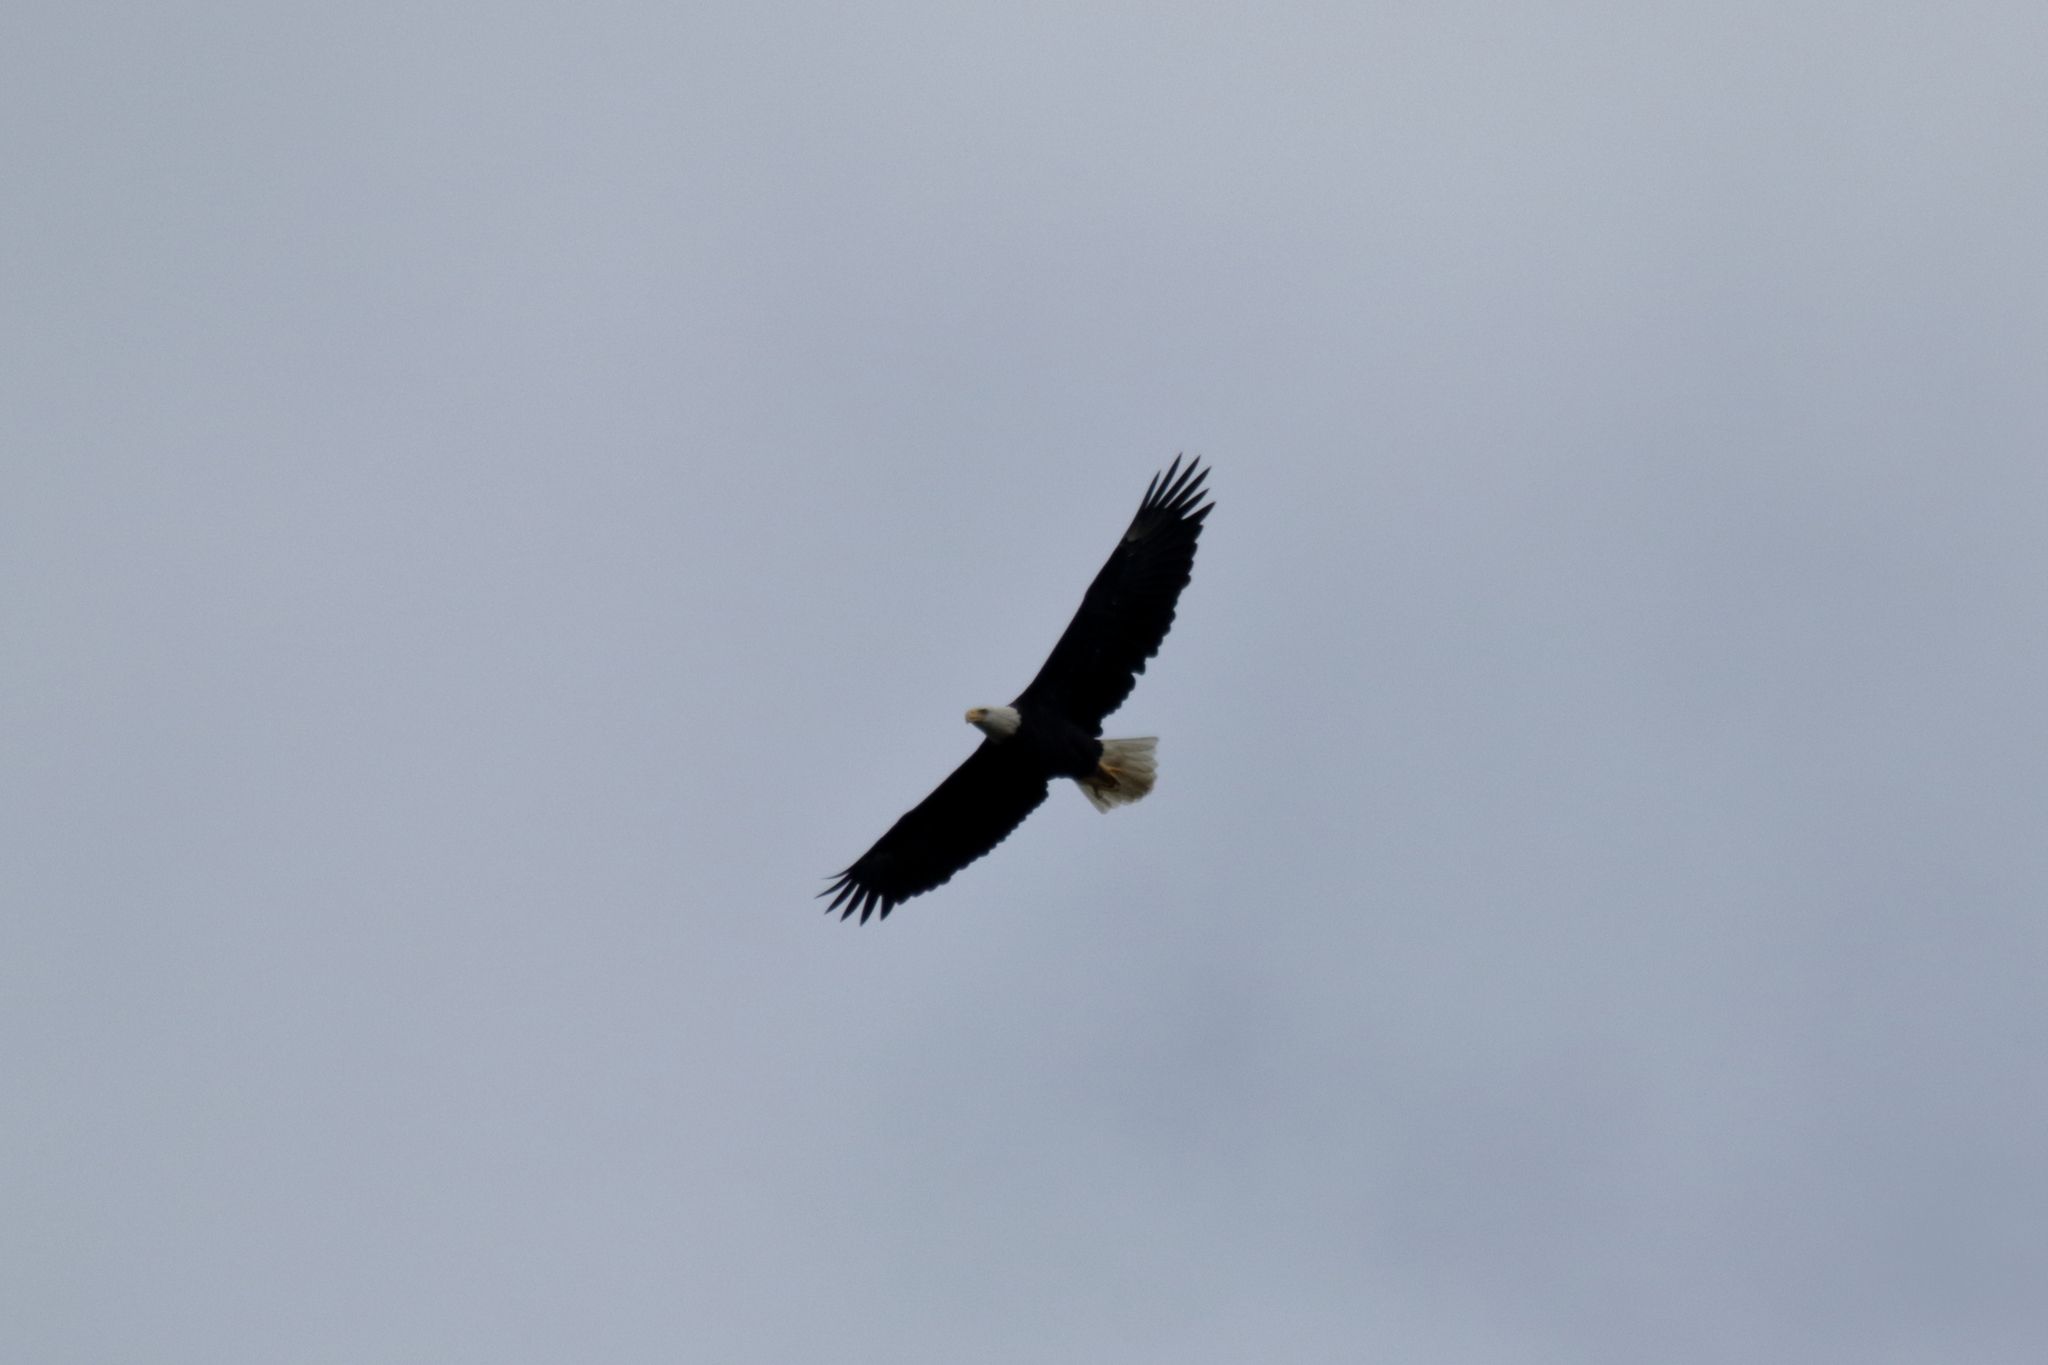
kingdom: Animalia
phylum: Chordata
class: Aves
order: Accipitriformes
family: Accipitridae
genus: Haliaeetus
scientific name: Haliaeetus leucocephalus
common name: Bald eagle
